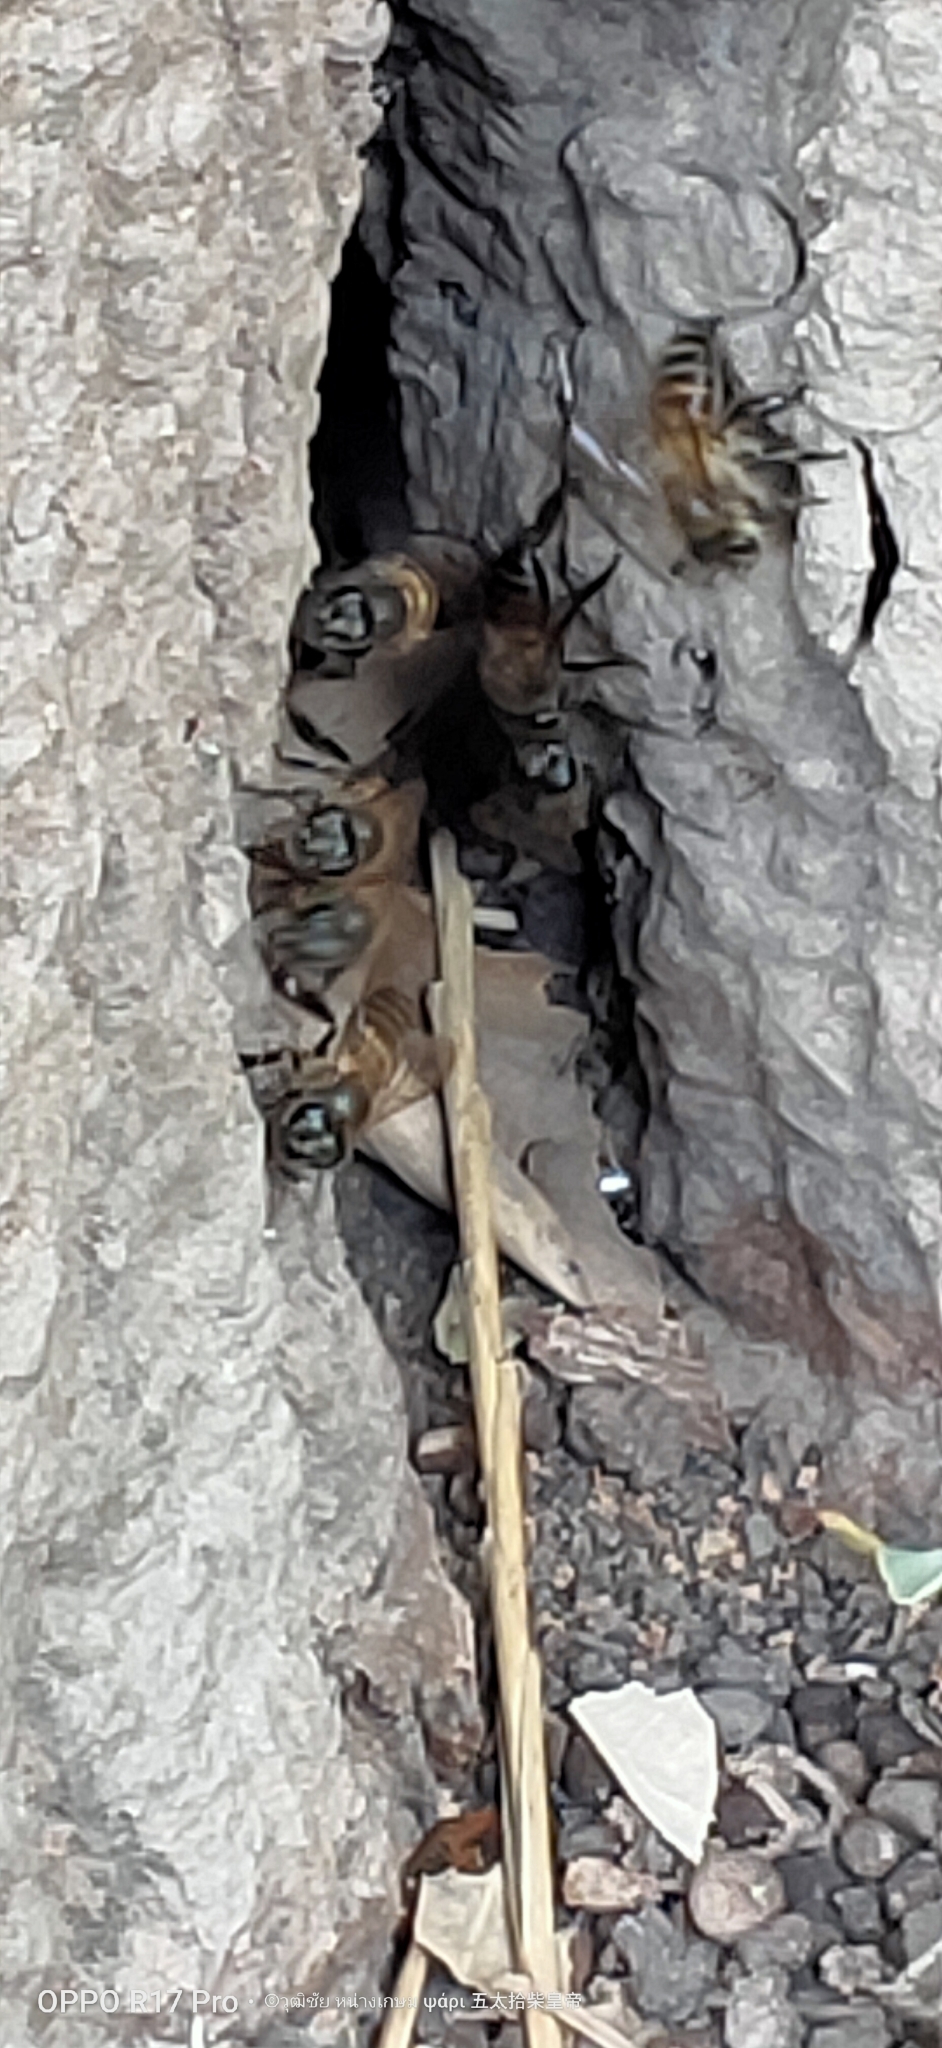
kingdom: Animalia
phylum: Arthropoda
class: Insecta
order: Hymenoptera
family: Apidae
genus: Apis
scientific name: Apis cerana
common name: Honey bee
